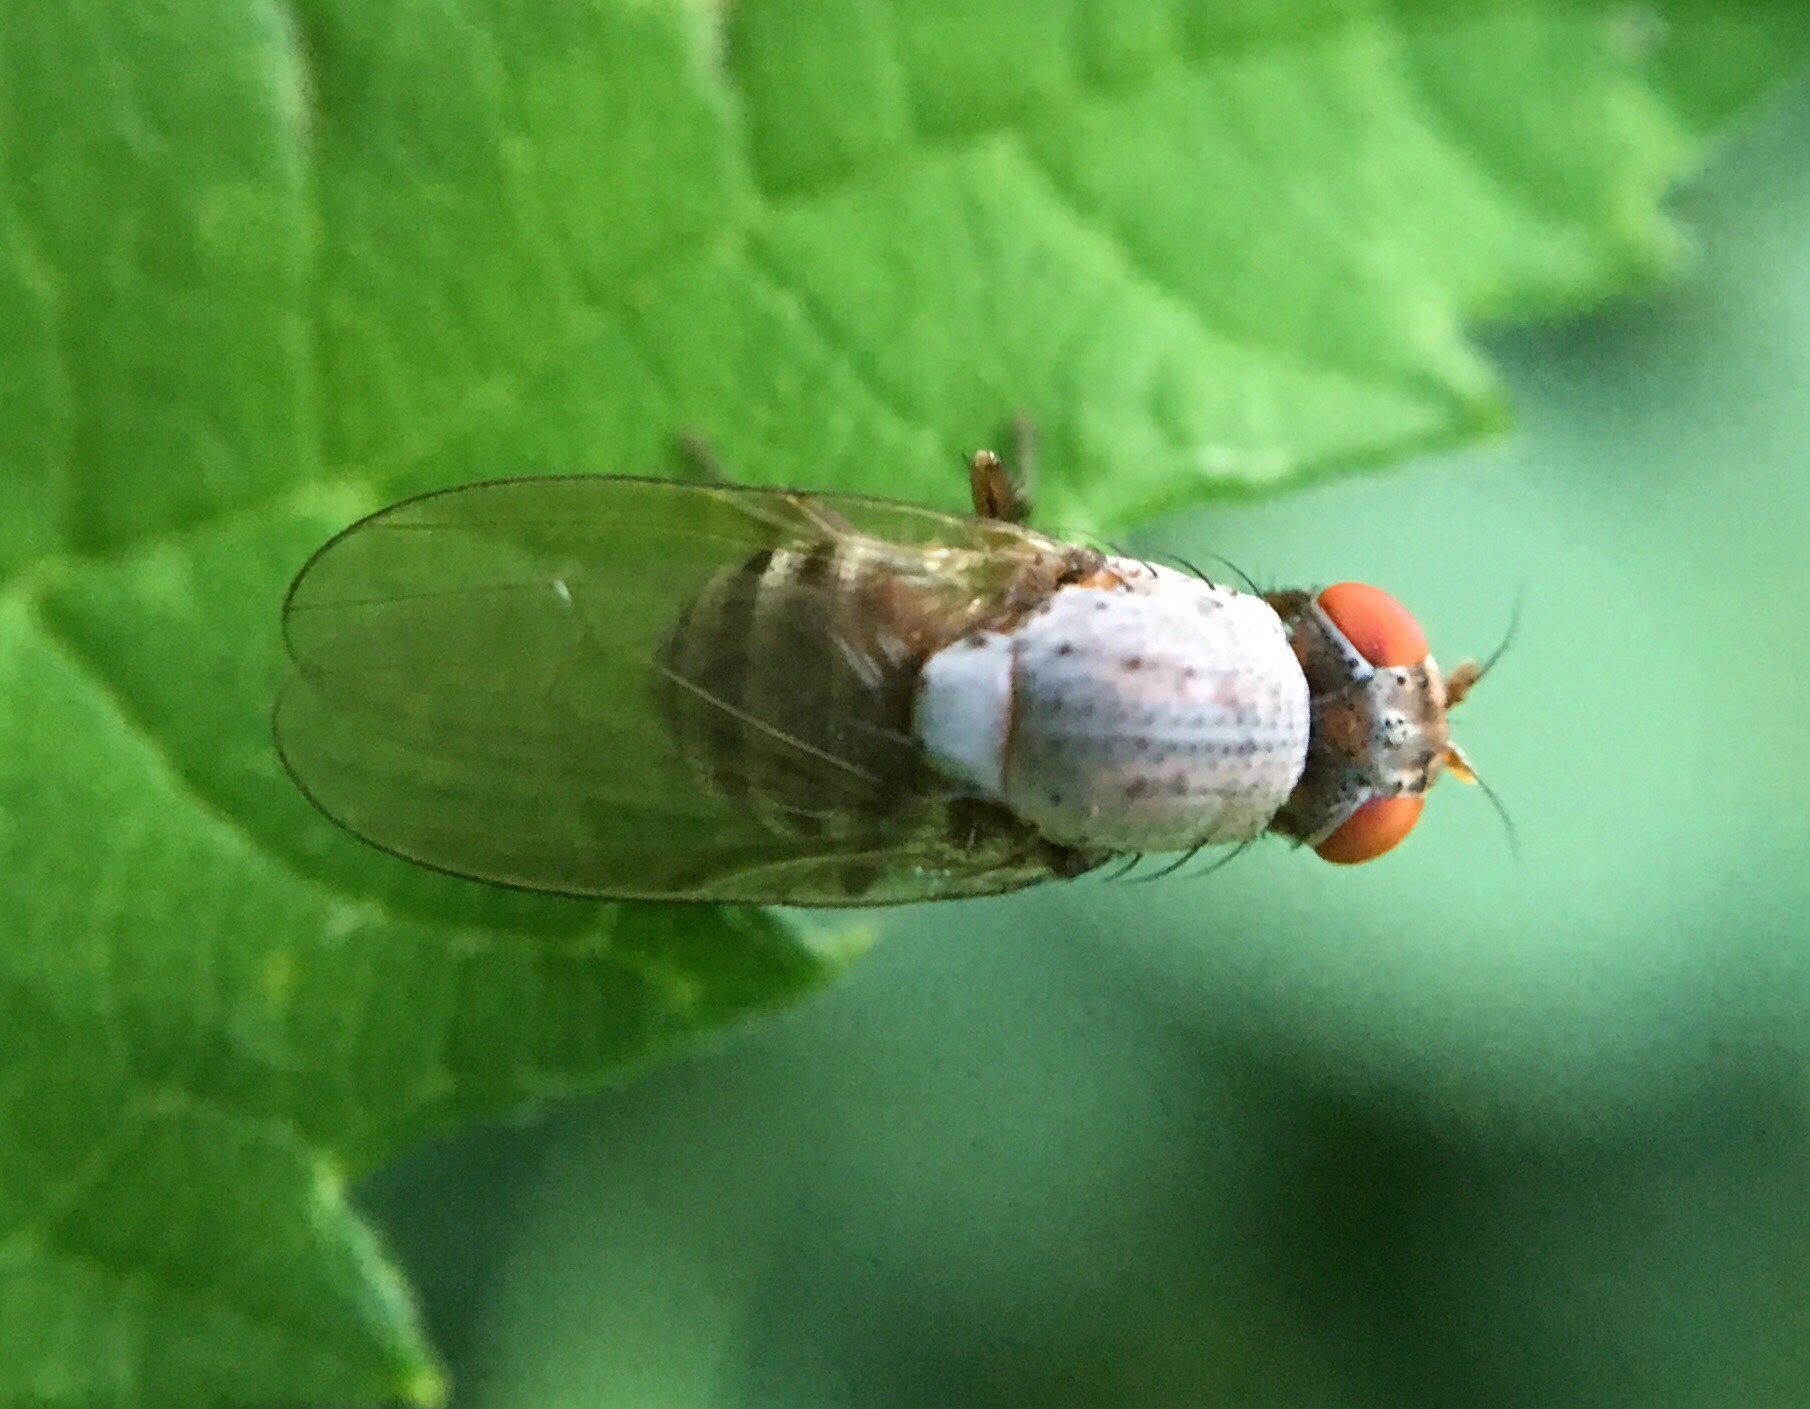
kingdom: Animalia
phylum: Arthropoda
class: Insecta
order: Diptera
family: Lauxaniidae
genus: Minettia
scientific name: Minettia magna
